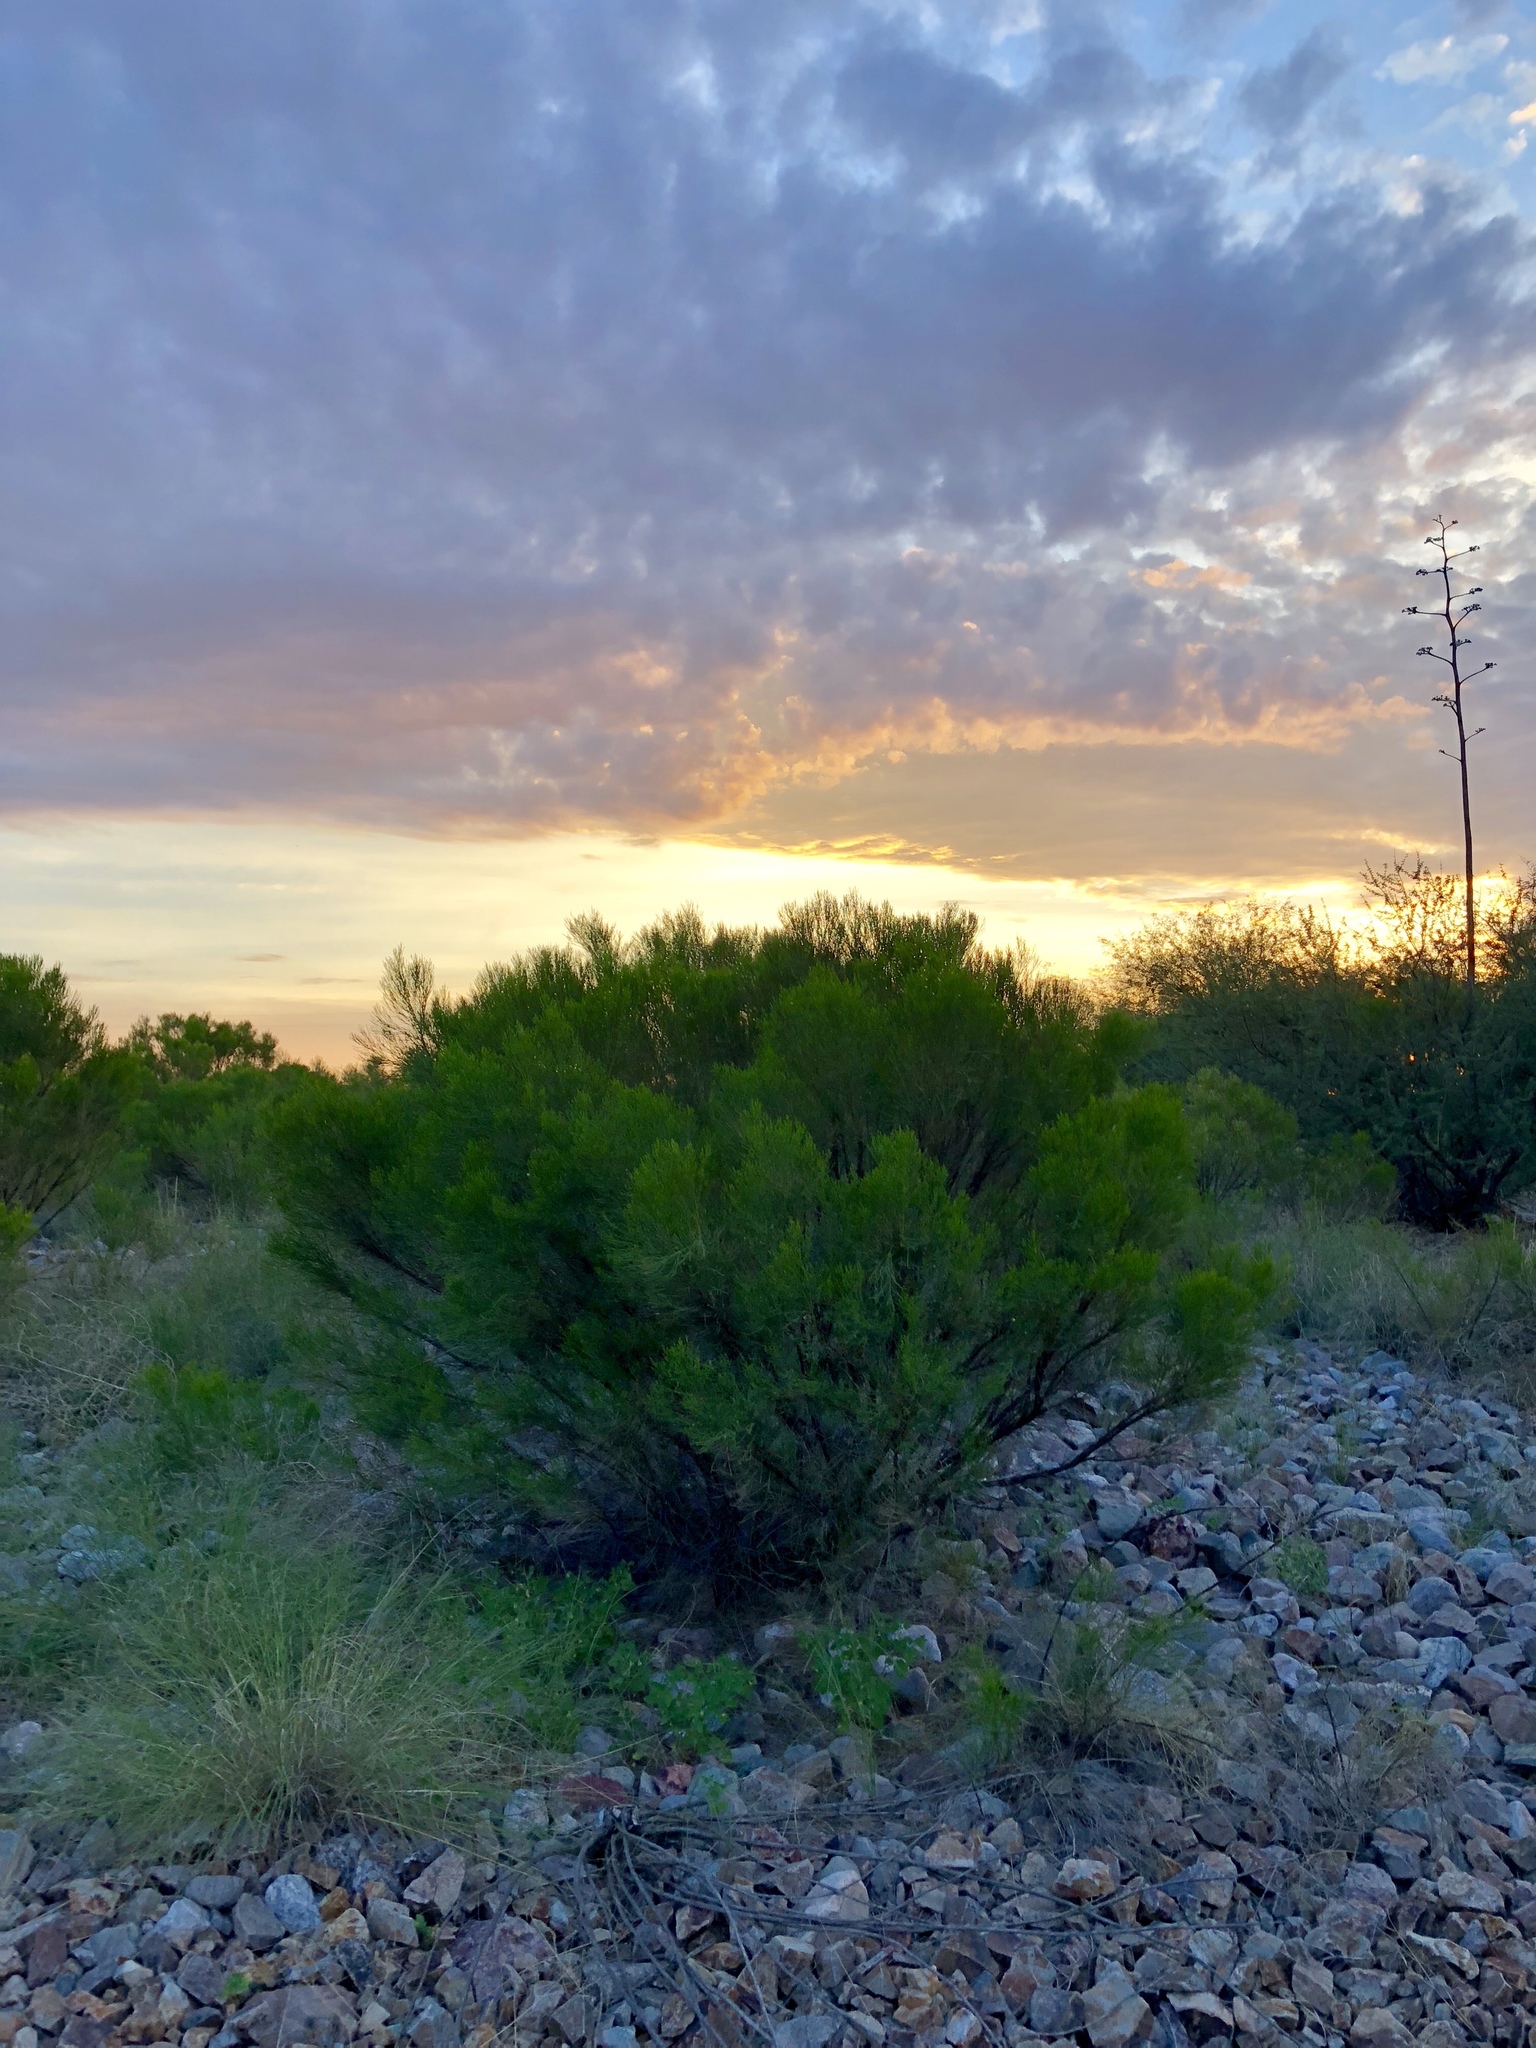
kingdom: Plantae
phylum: Tracheophyta
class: Magnoliopsida
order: Asterales
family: Asteraceae
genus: Baccharis
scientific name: Baccharis sarothroides
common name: Desert-broom
